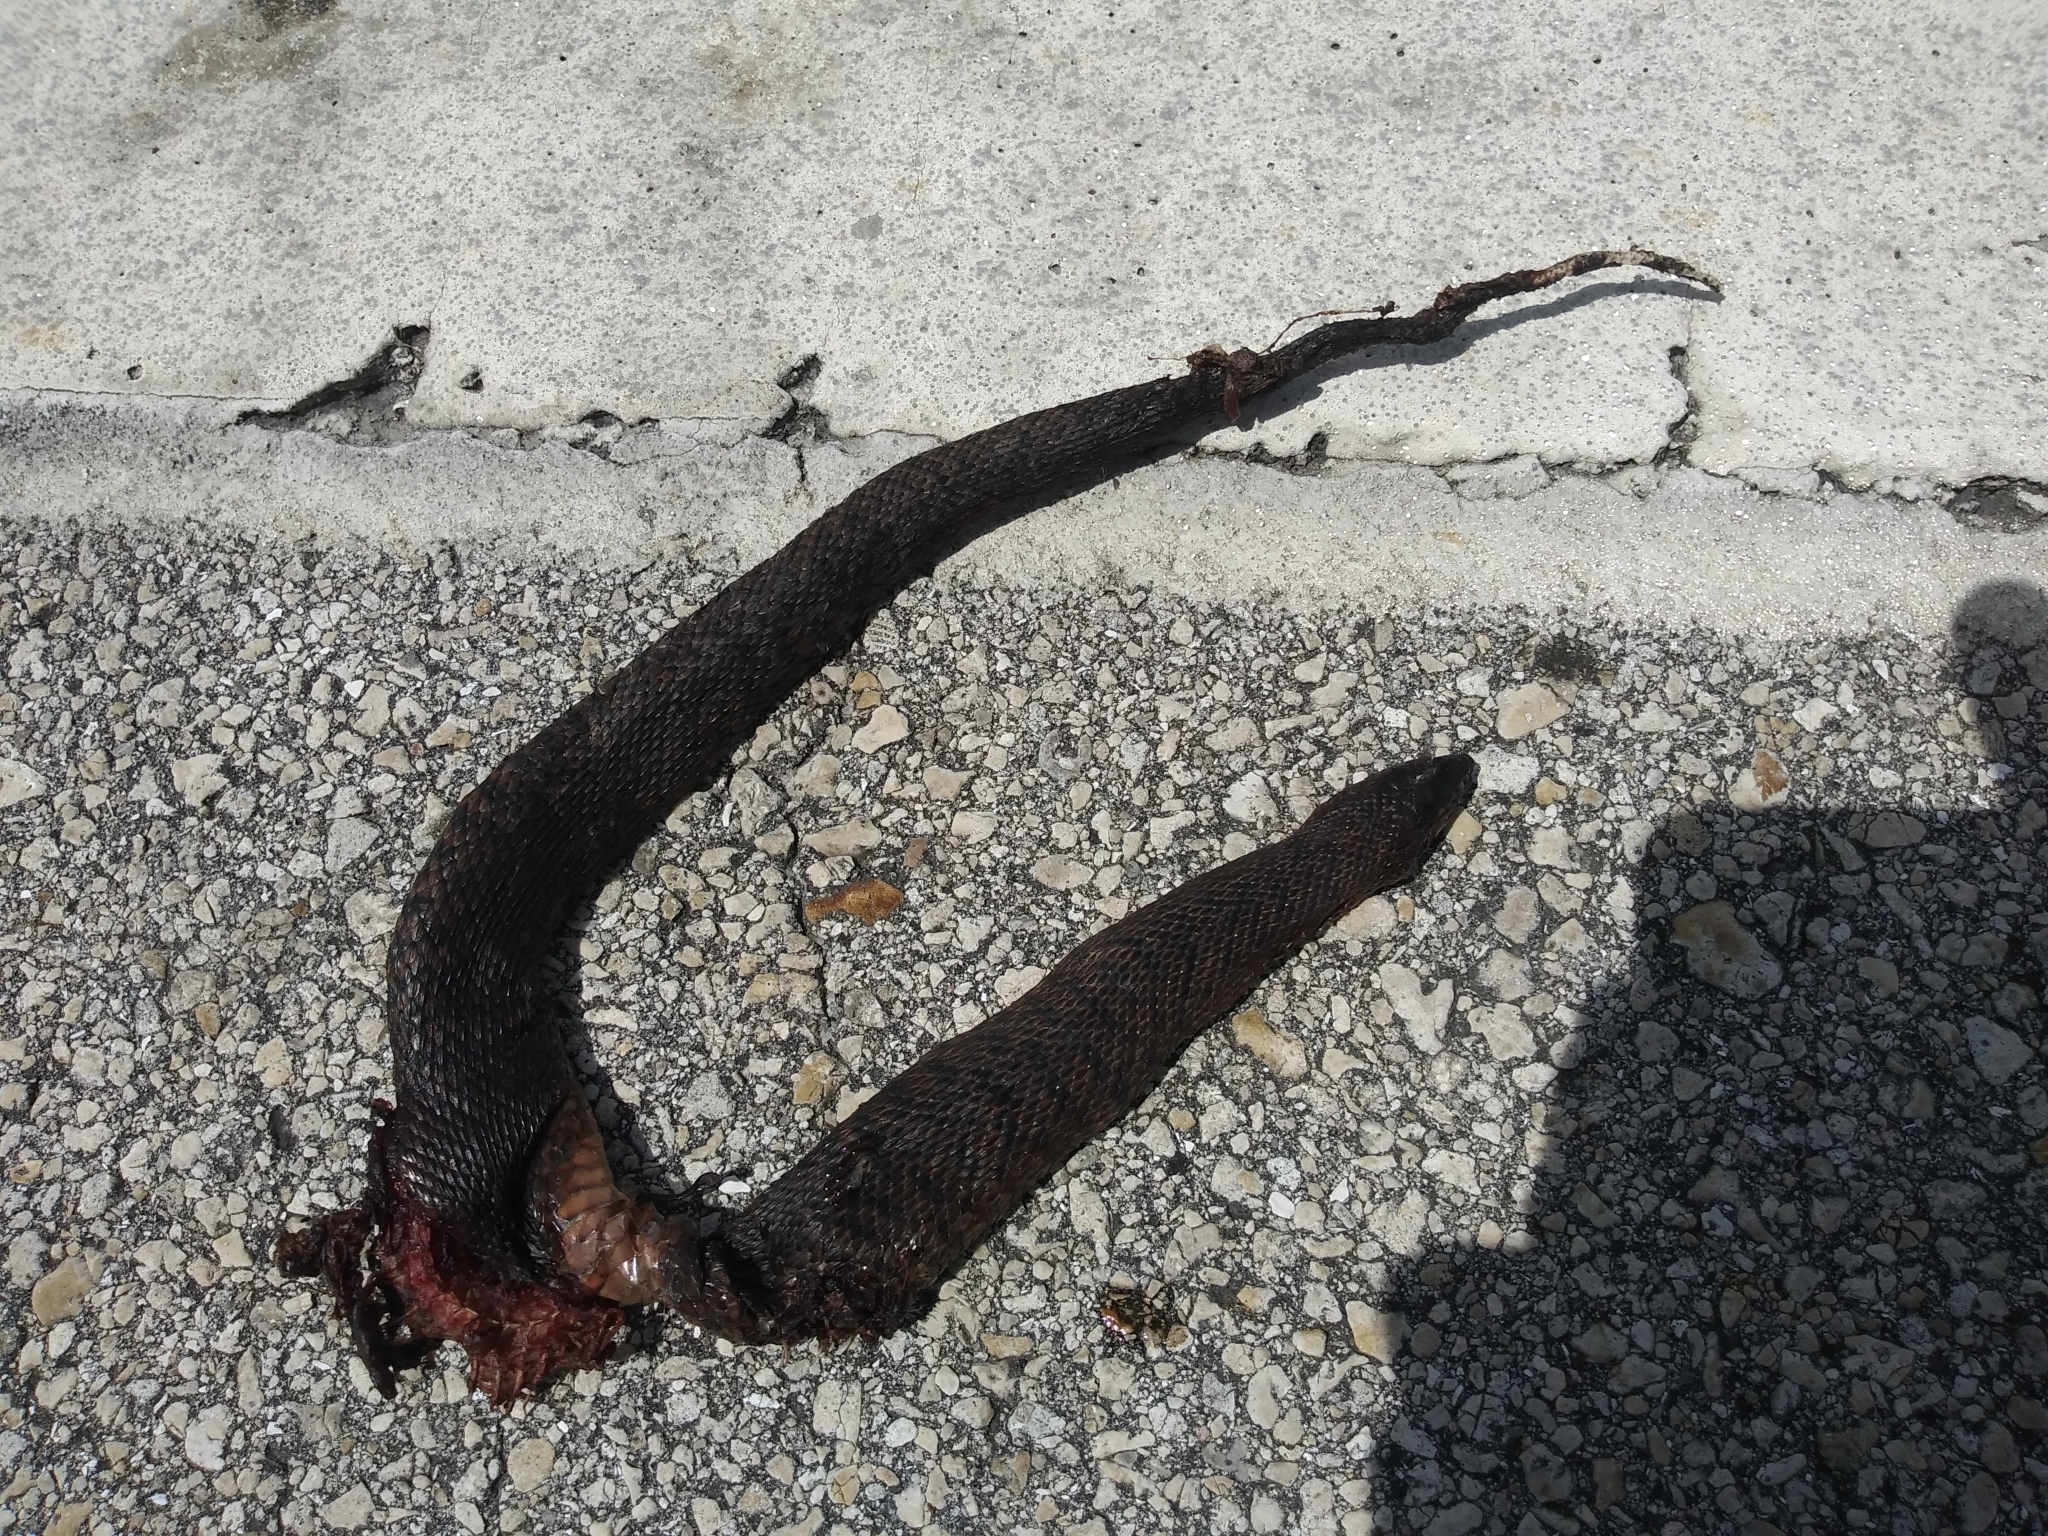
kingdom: Animalia
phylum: Chordata
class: Squamata
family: Colubridae
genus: Nerodia
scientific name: Nerodia floridana
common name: Florida green watersnake
